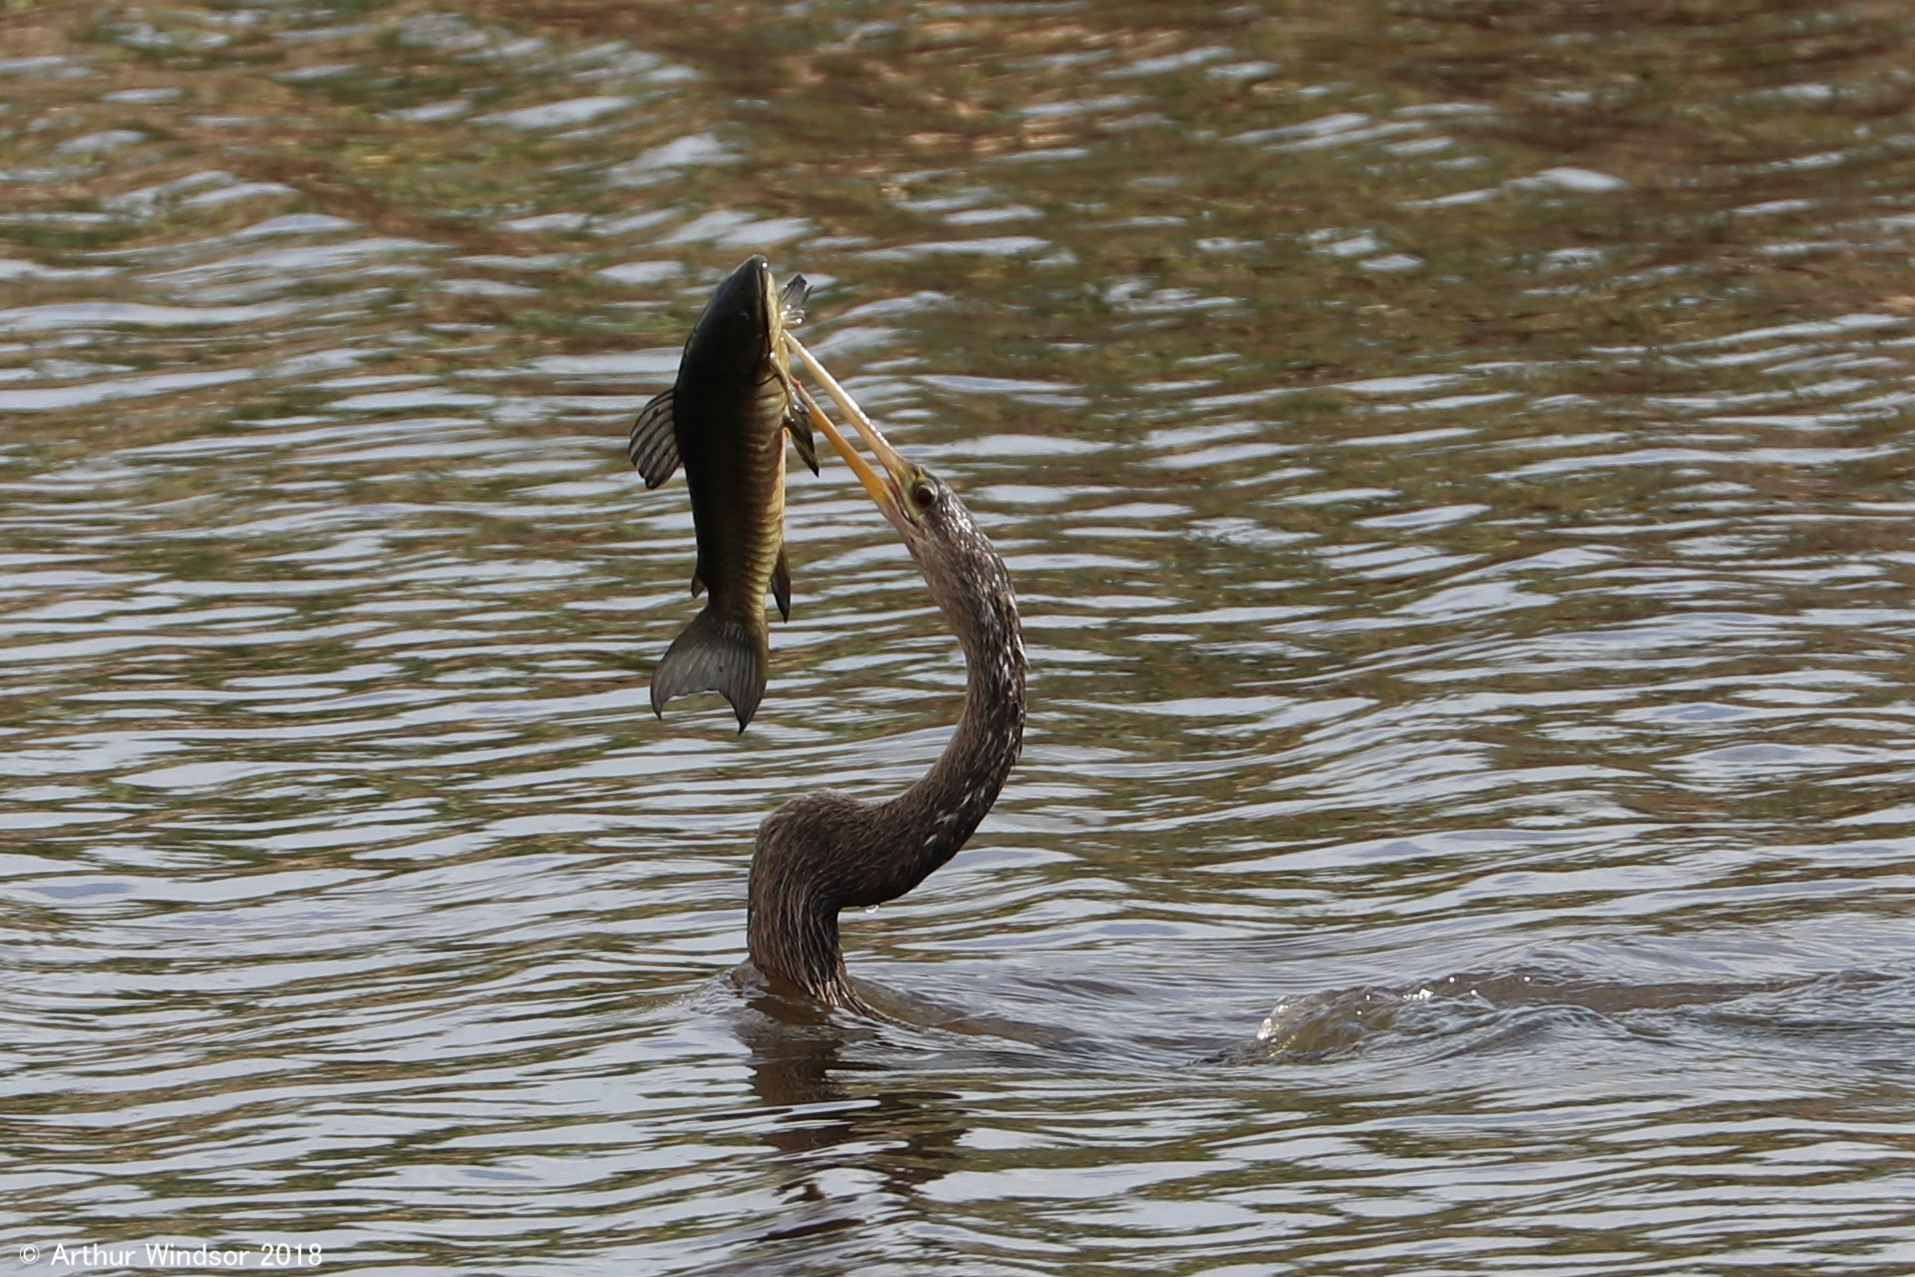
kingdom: Animalia
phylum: Chordata
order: Siluriformes
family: Callichthyidae
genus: Hoplosternum
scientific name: Hoplosternum littorale
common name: Brown hoplo
